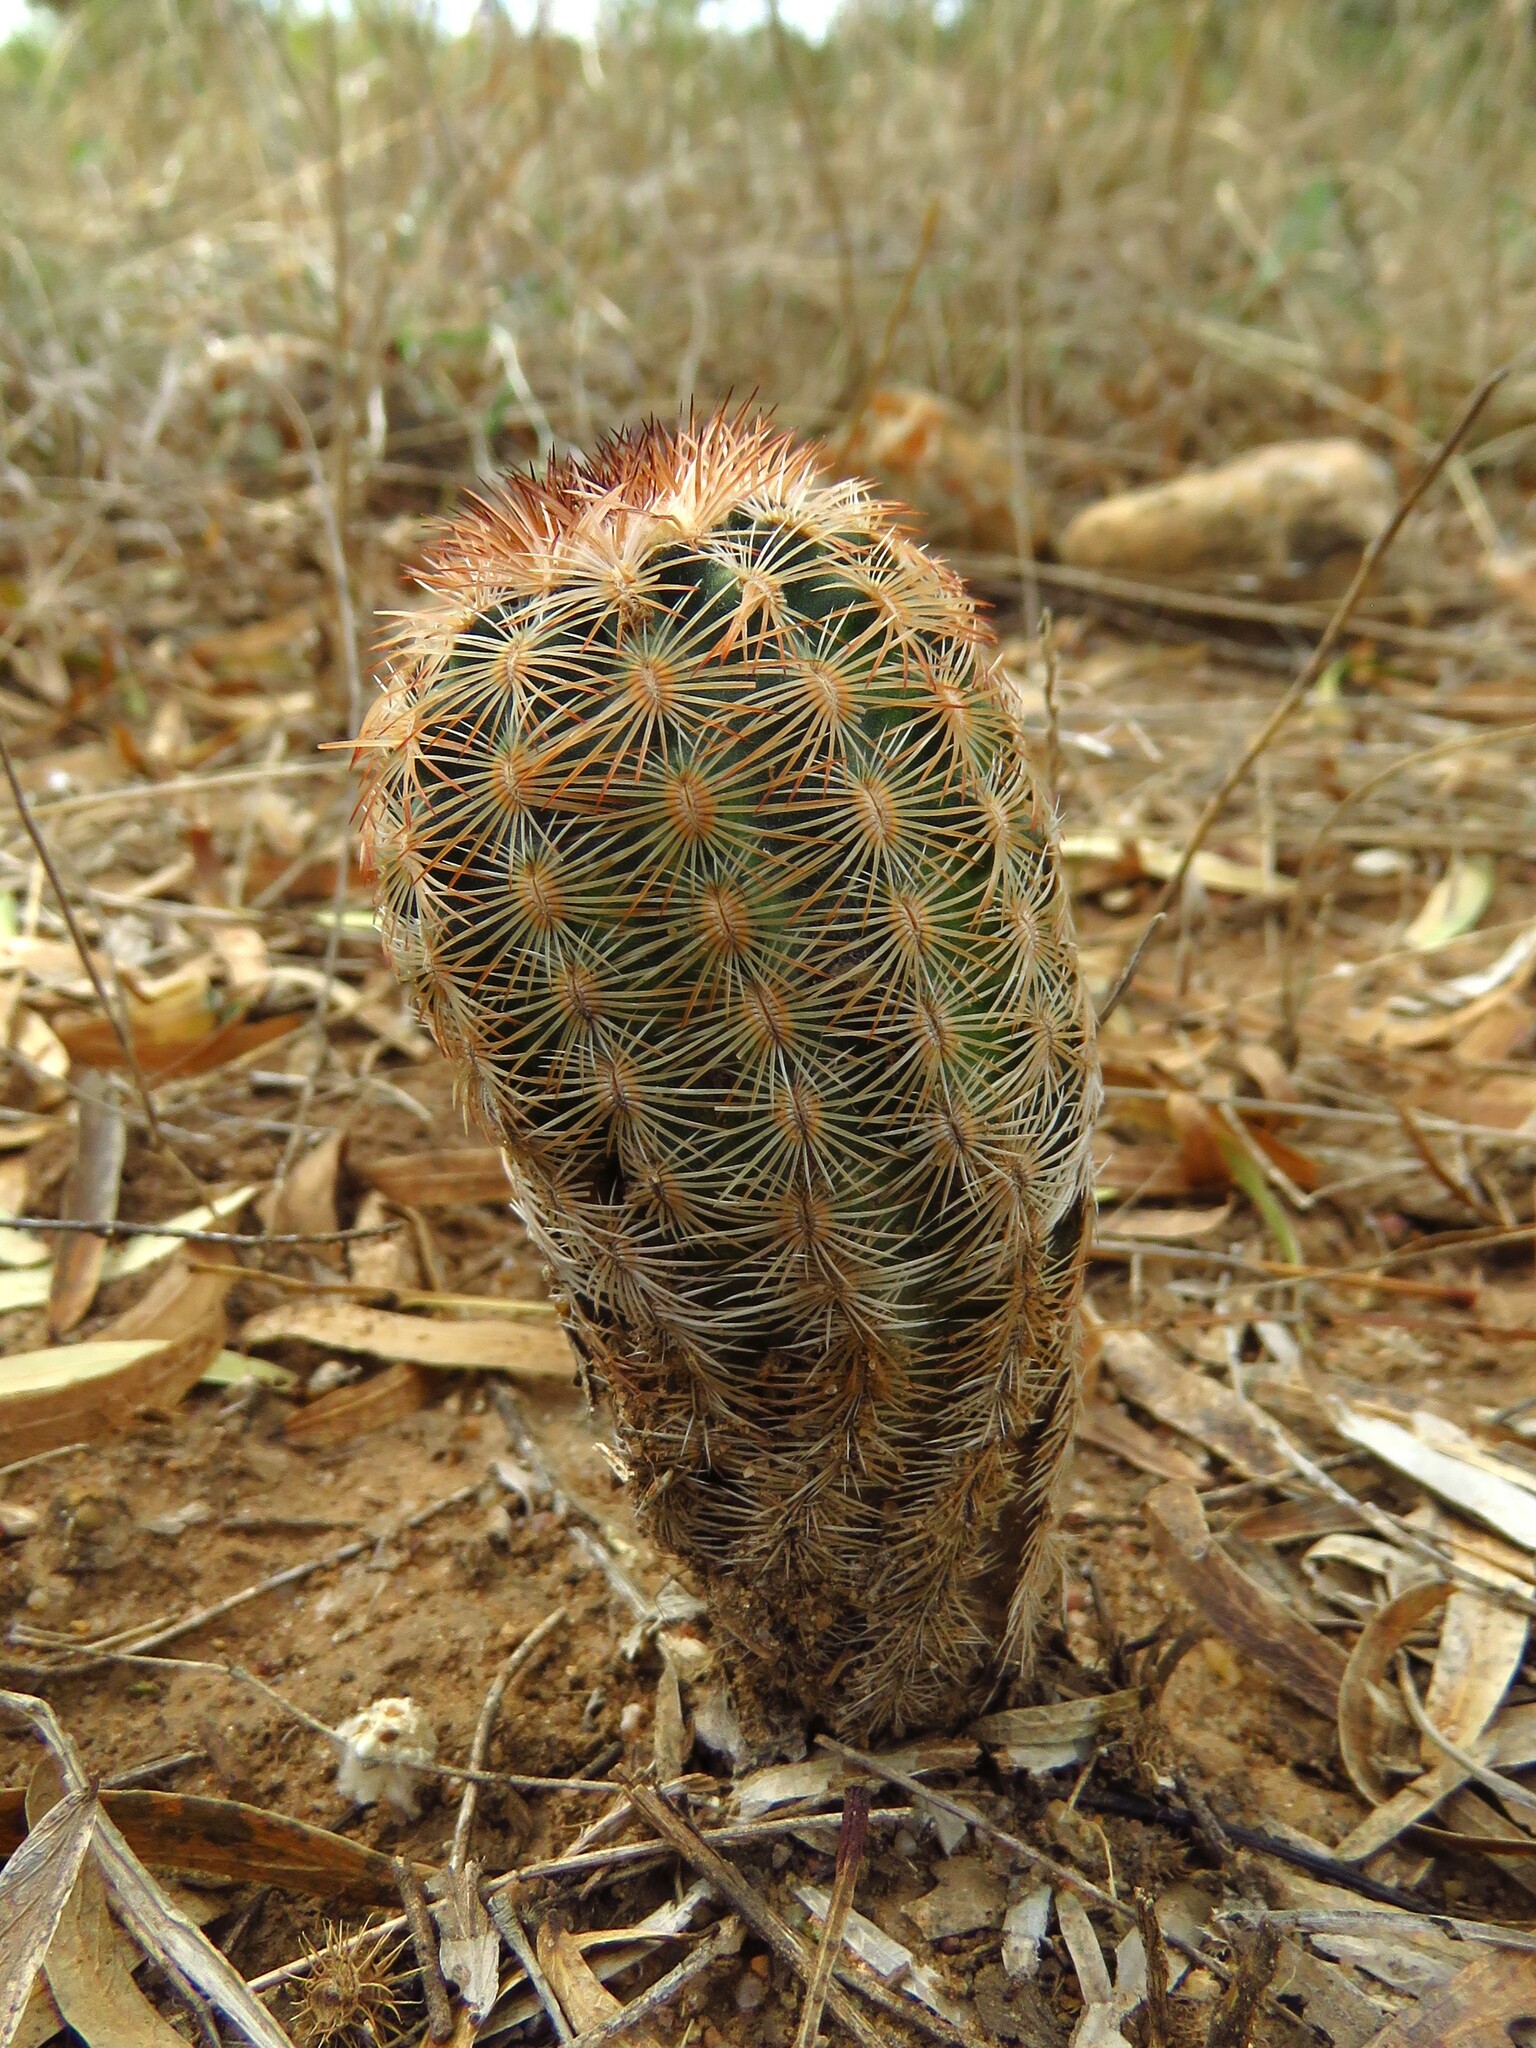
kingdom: Plantae
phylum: Tracheophyta
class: Magnoliopsida
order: Caryophyllales
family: Cactaceae
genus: Echinocereus
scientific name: Echinocereus reichenbachii
